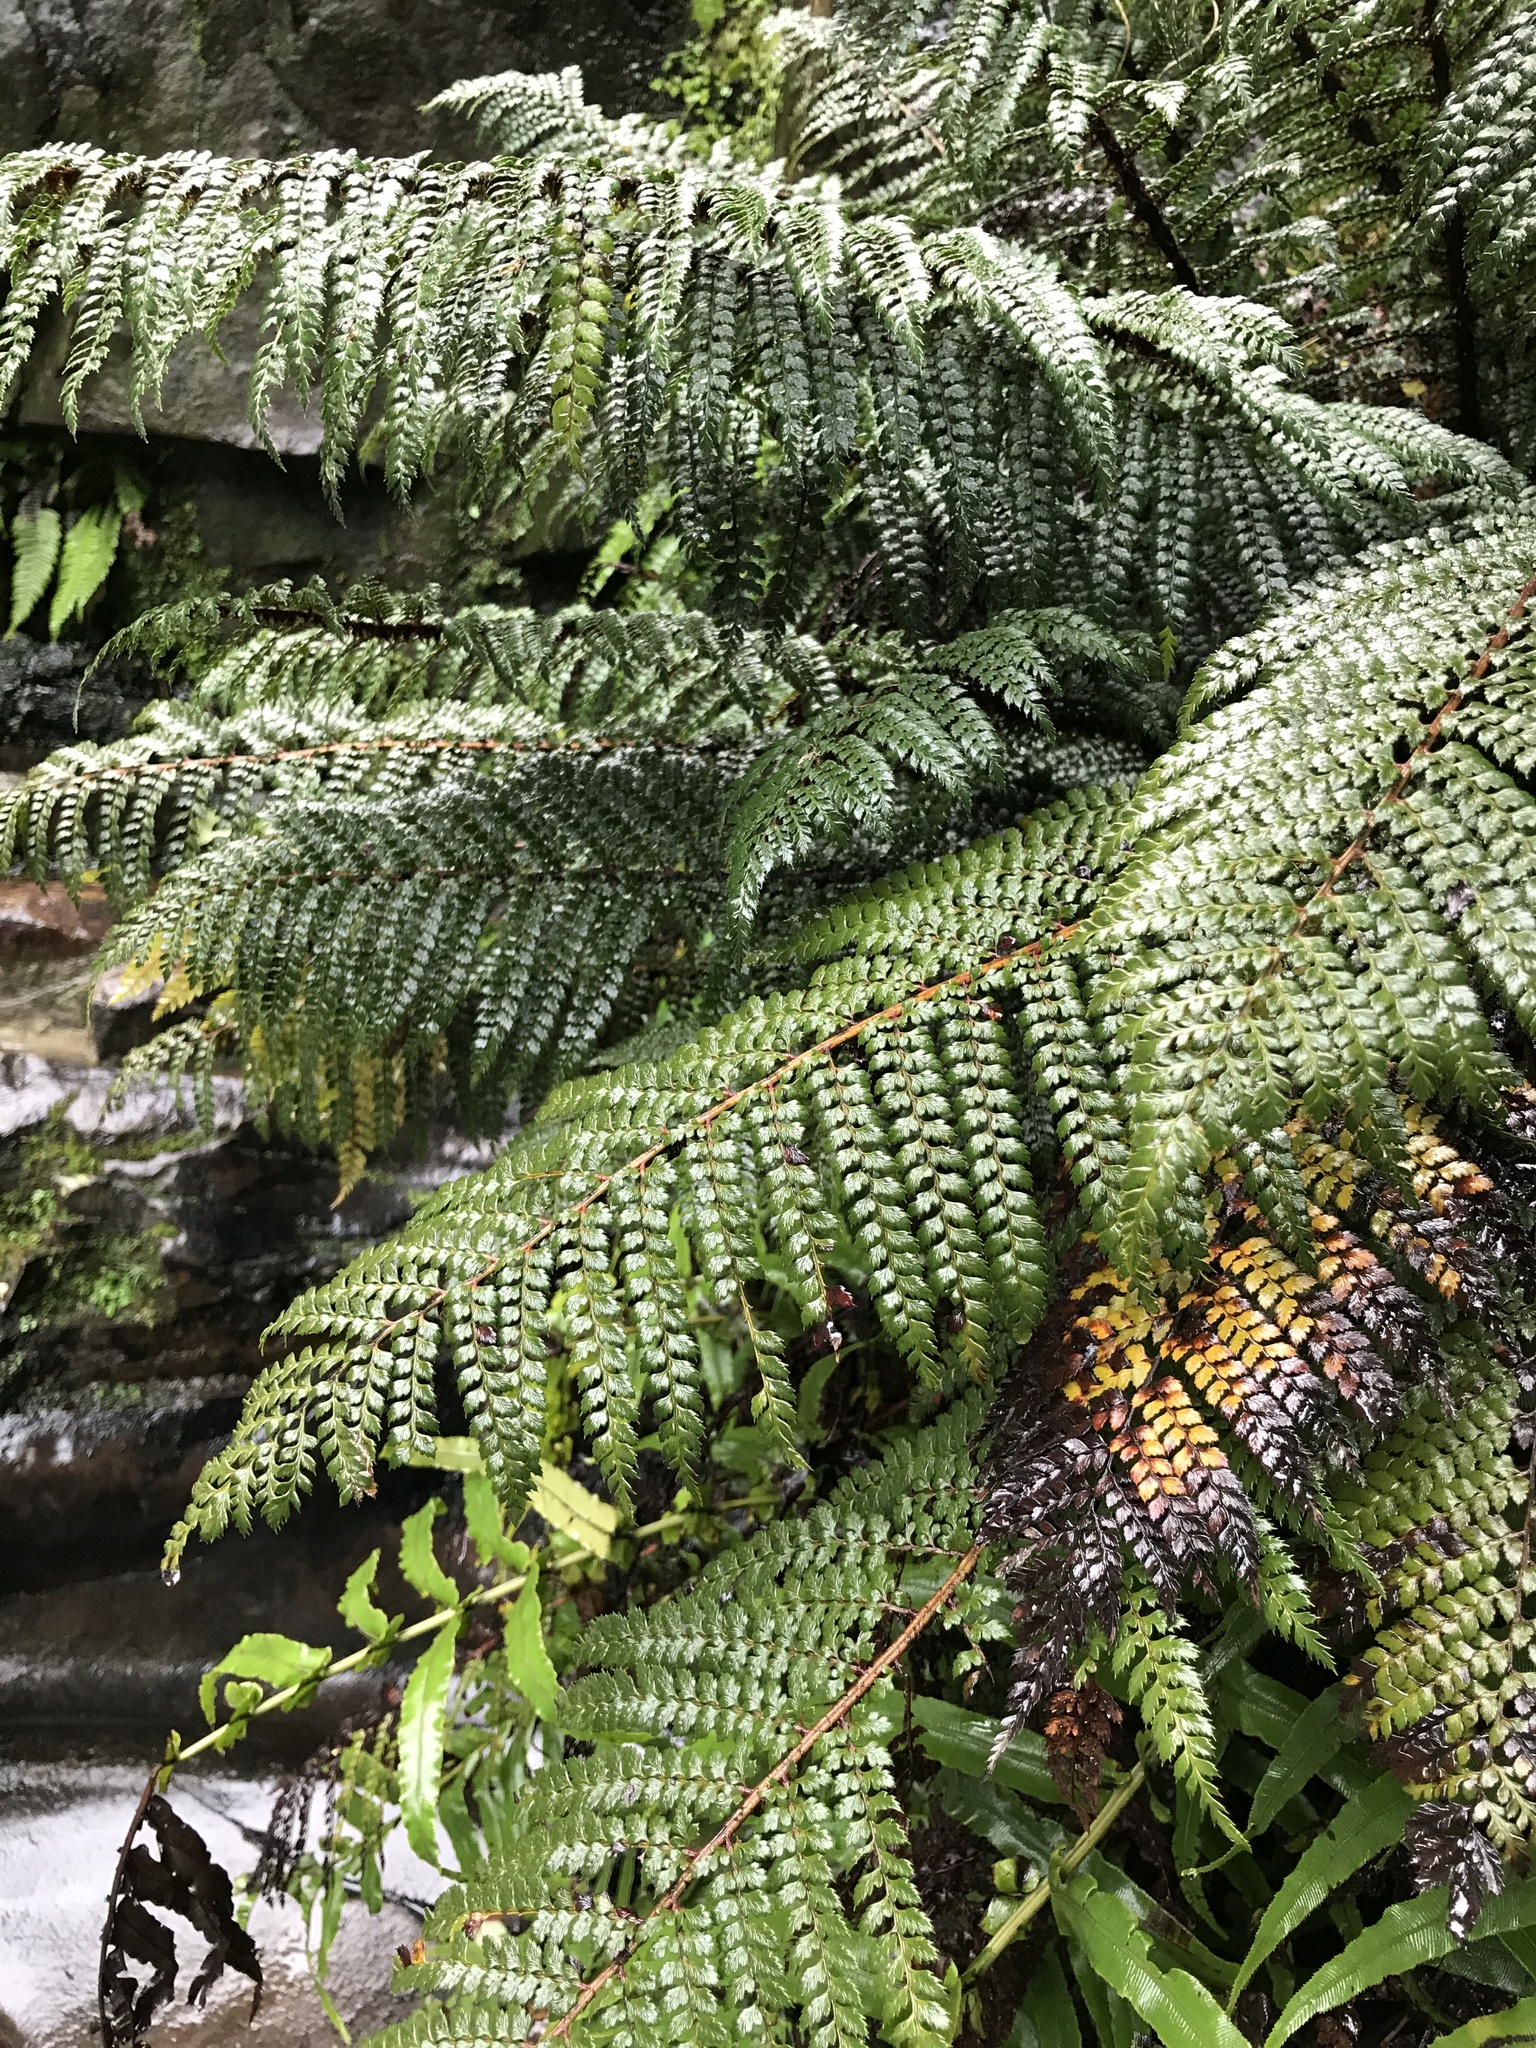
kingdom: Plantae
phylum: Tracheophyta
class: Polypodiopsida
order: Polypodiales
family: Dryopteridaceae
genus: Polystichum
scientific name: Polystichum vestitum
